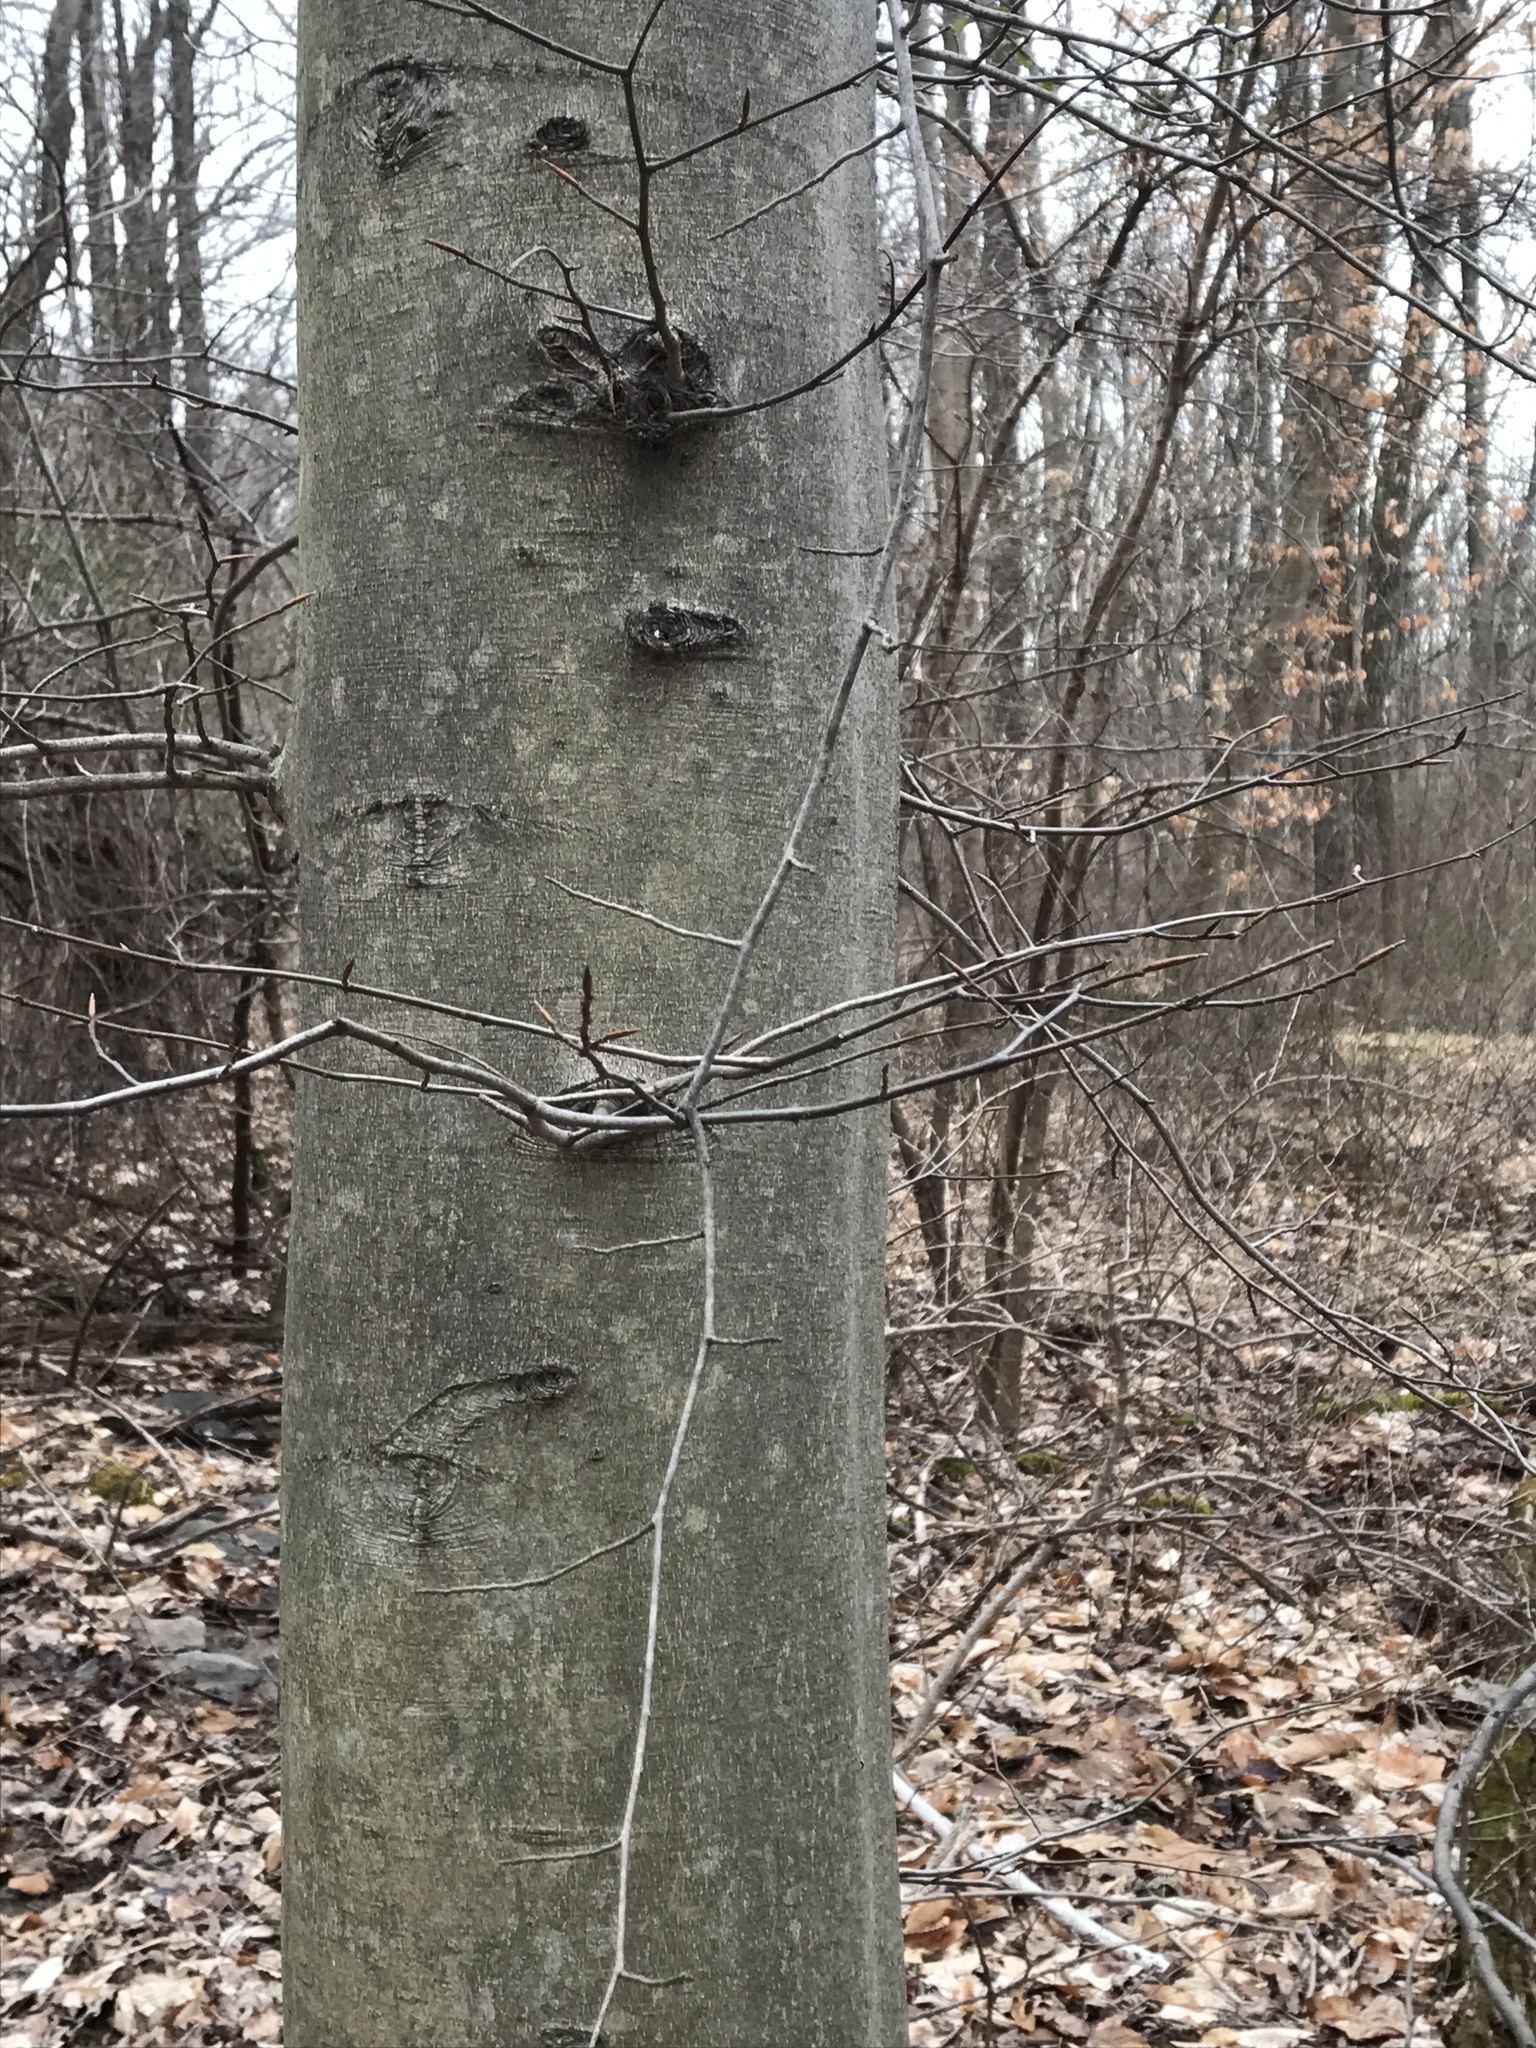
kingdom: Plantae
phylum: Tracheophyta
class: Magnoliopsida
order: Fagales
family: Fagaceae
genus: Fagus
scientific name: Fagus grandifolia
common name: American beech
